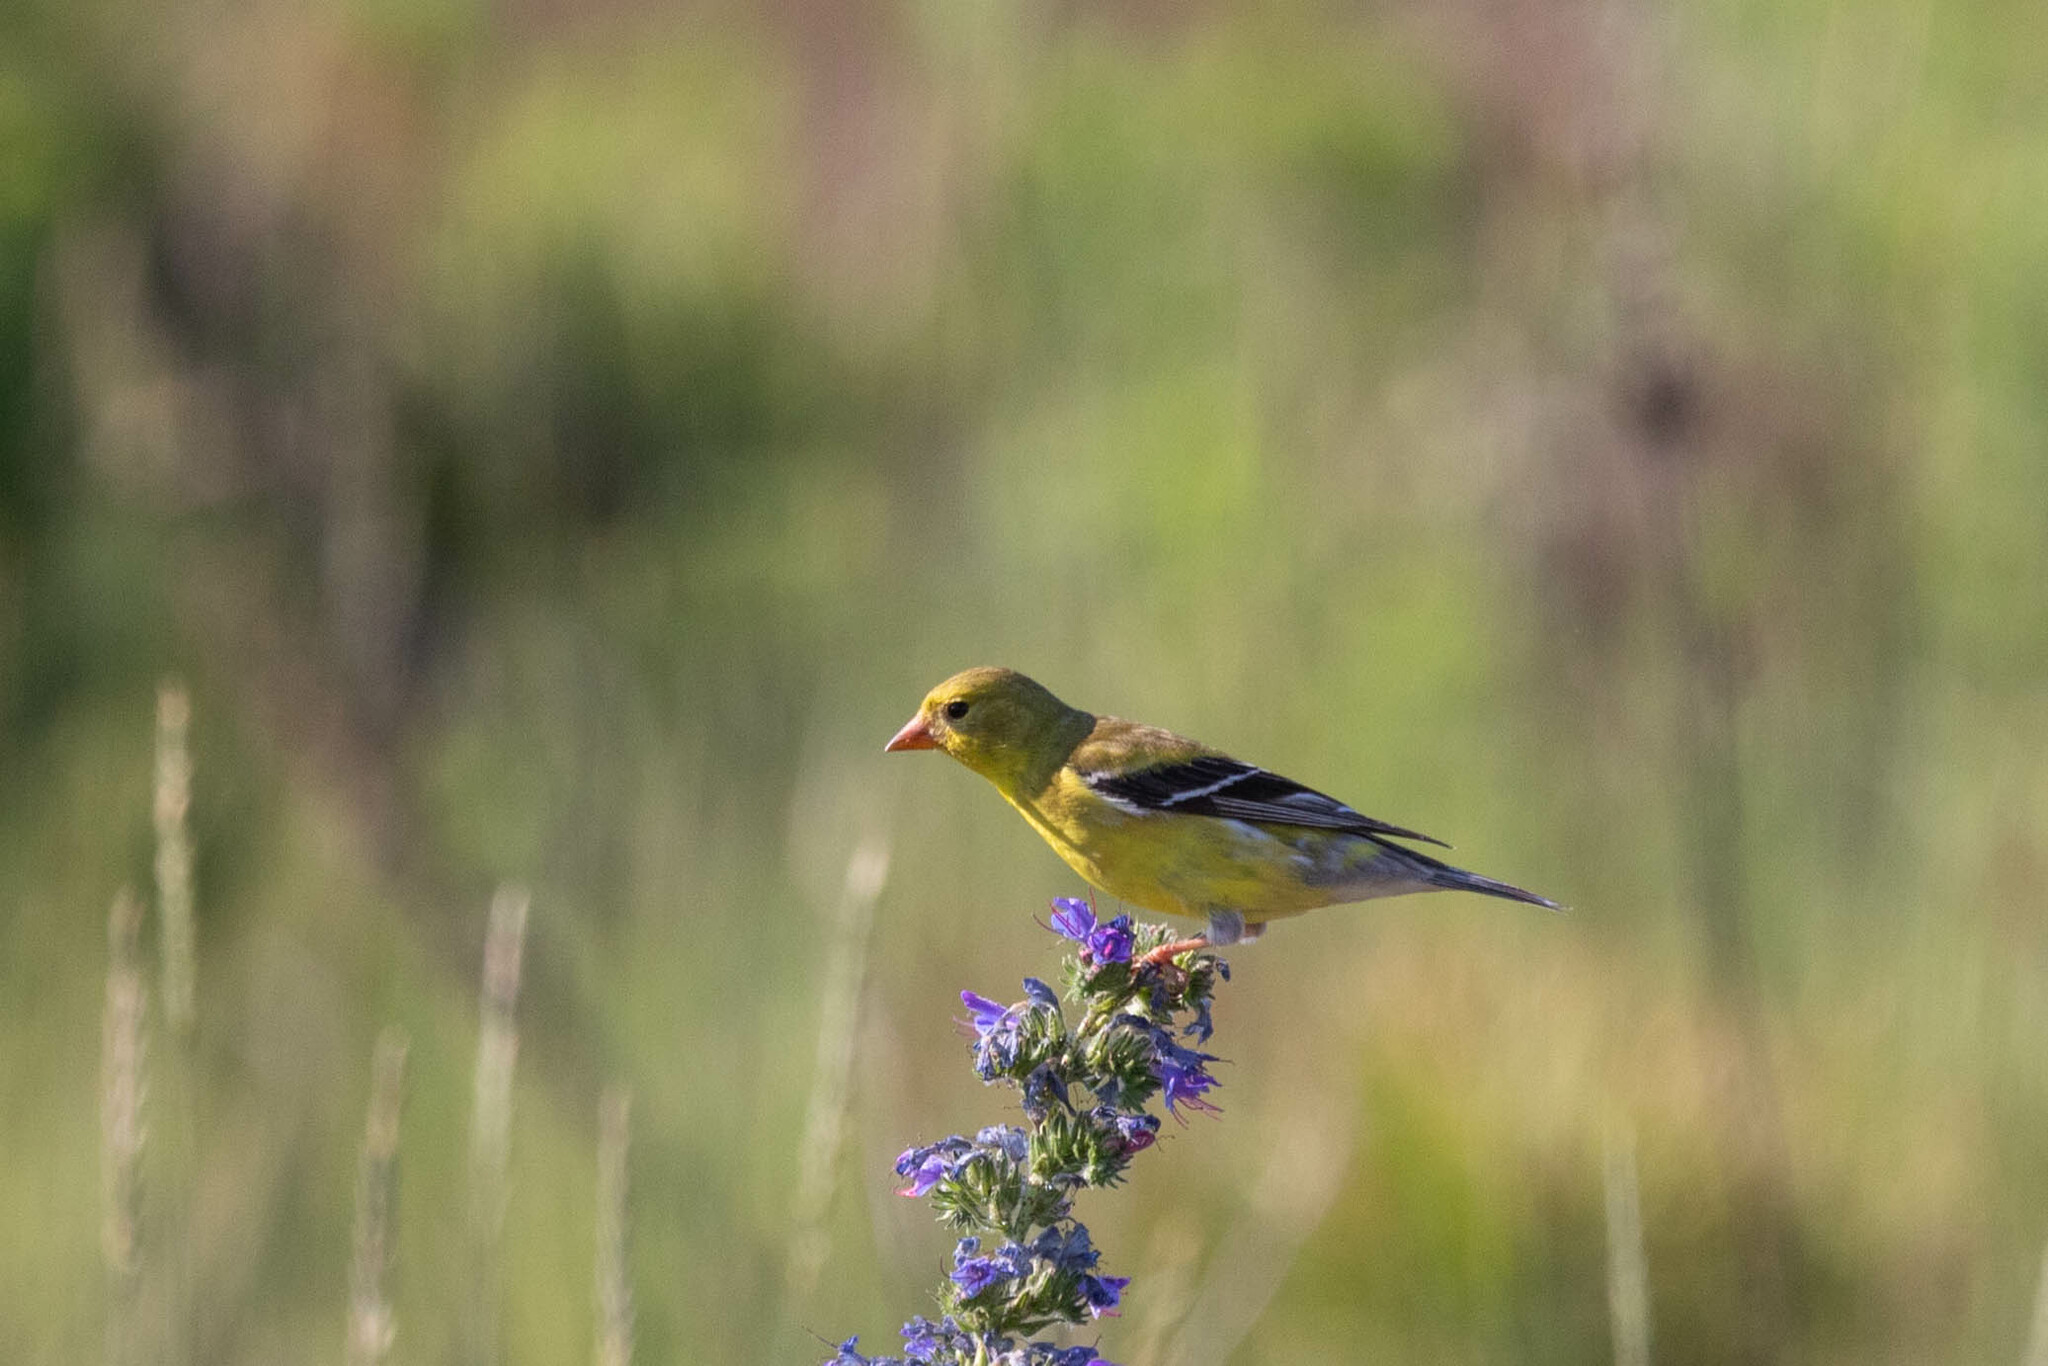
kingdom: Animalia
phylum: Chordata
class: Aves
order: Passeriformes
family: Fringillidae
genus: Spinus
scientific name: Spinus tristis
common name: American goldfinch
